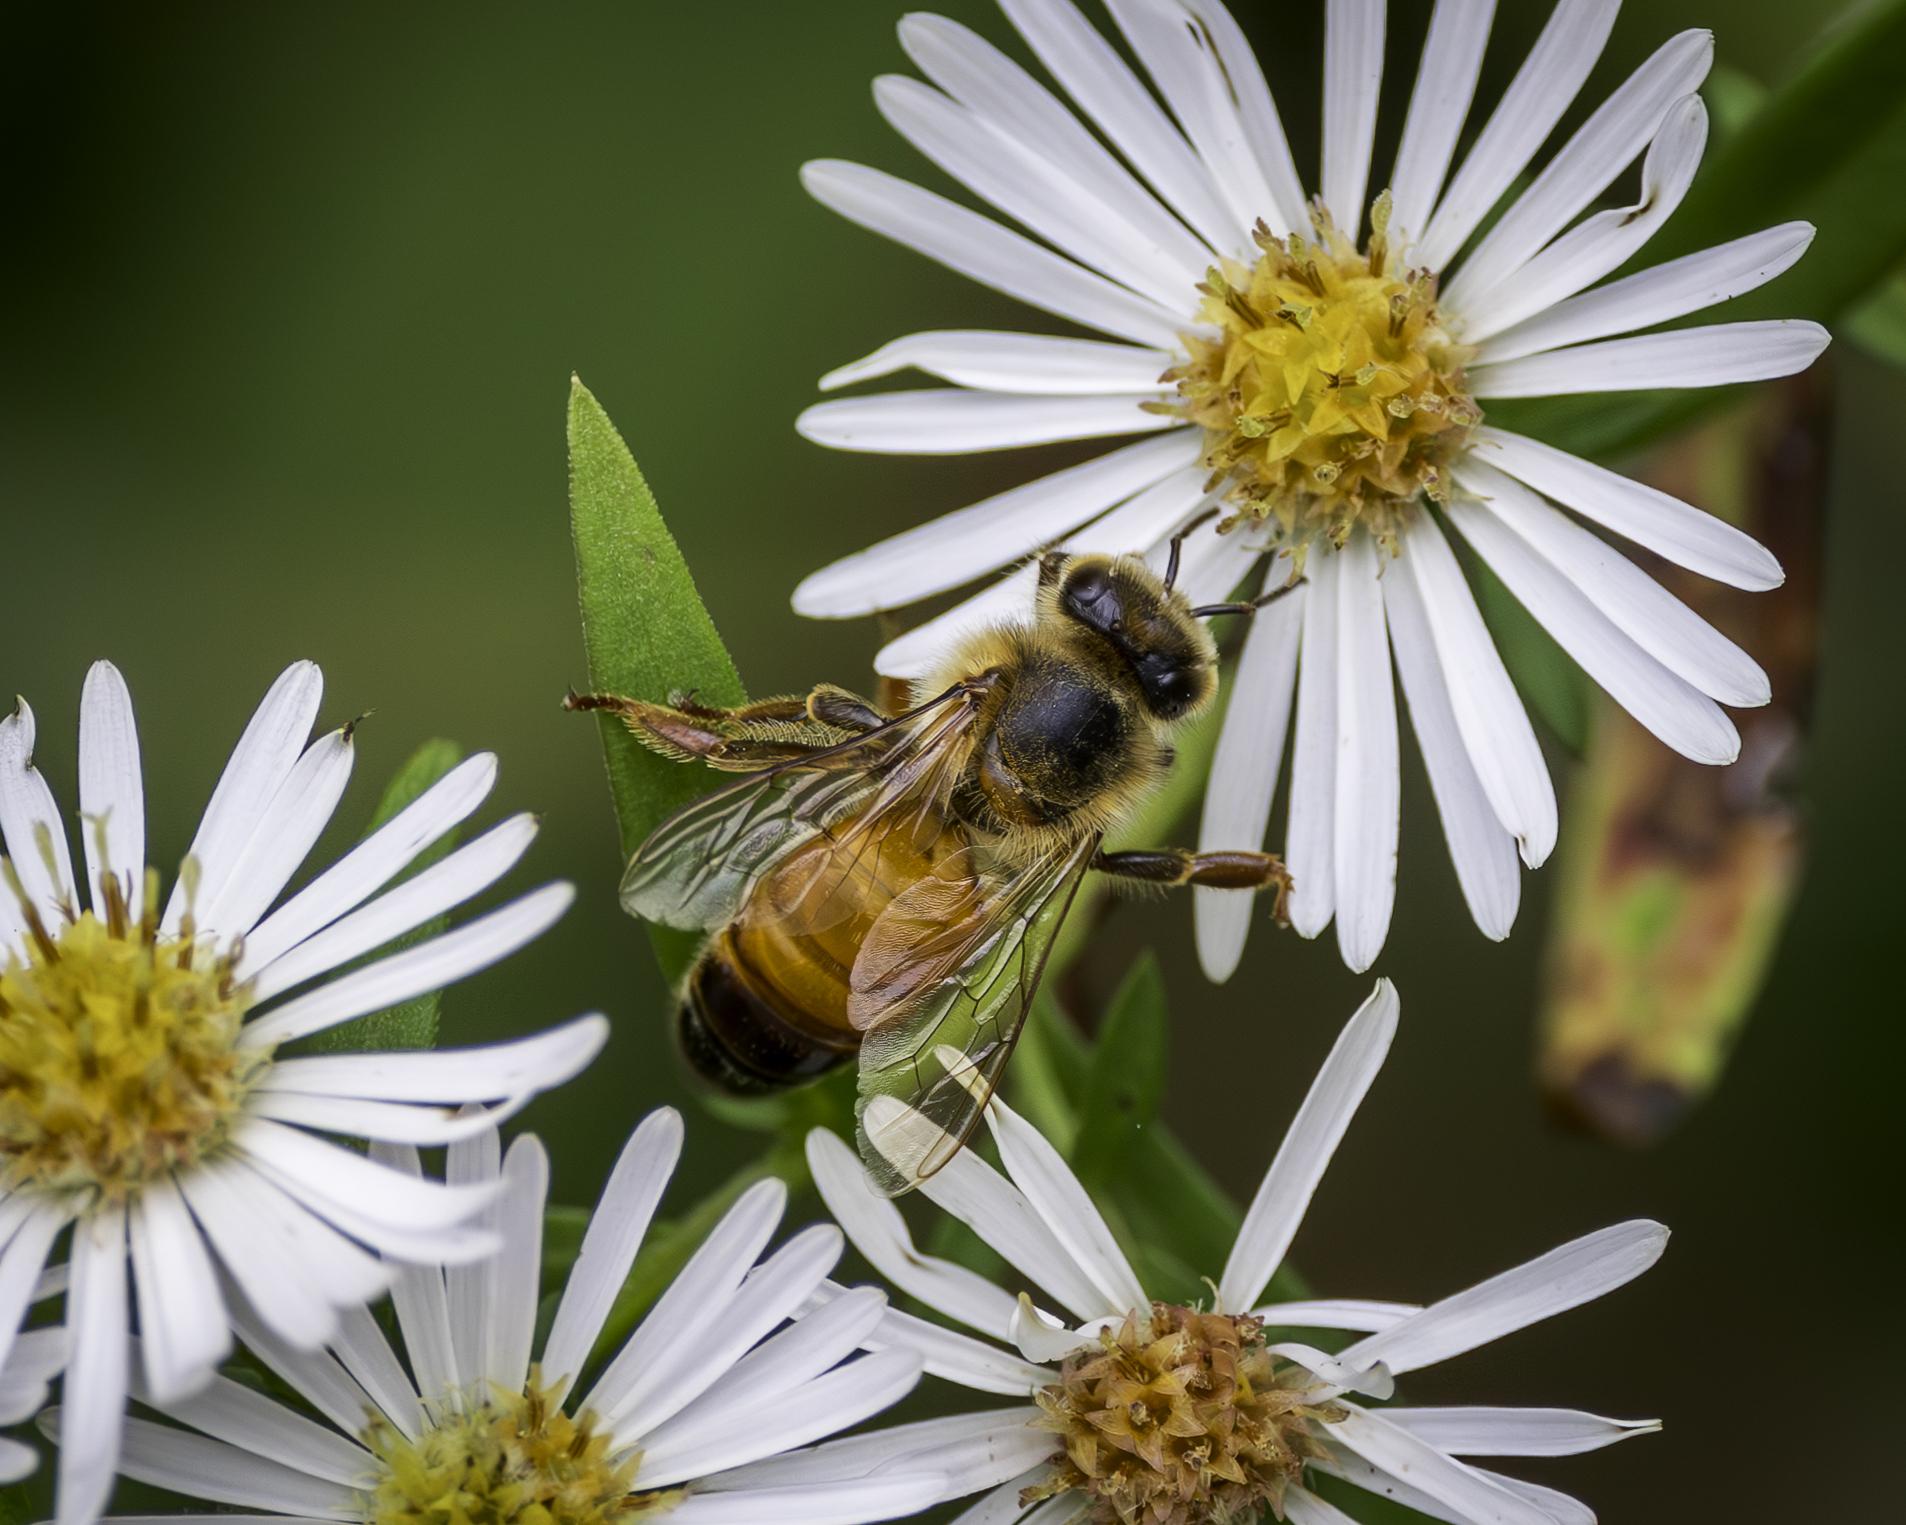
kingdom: Animalia
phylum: Arthropoda
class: Insecta
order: Hymenoptera
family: Apidae
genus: Apis
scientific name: Apis mellifera
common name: Honey bee
